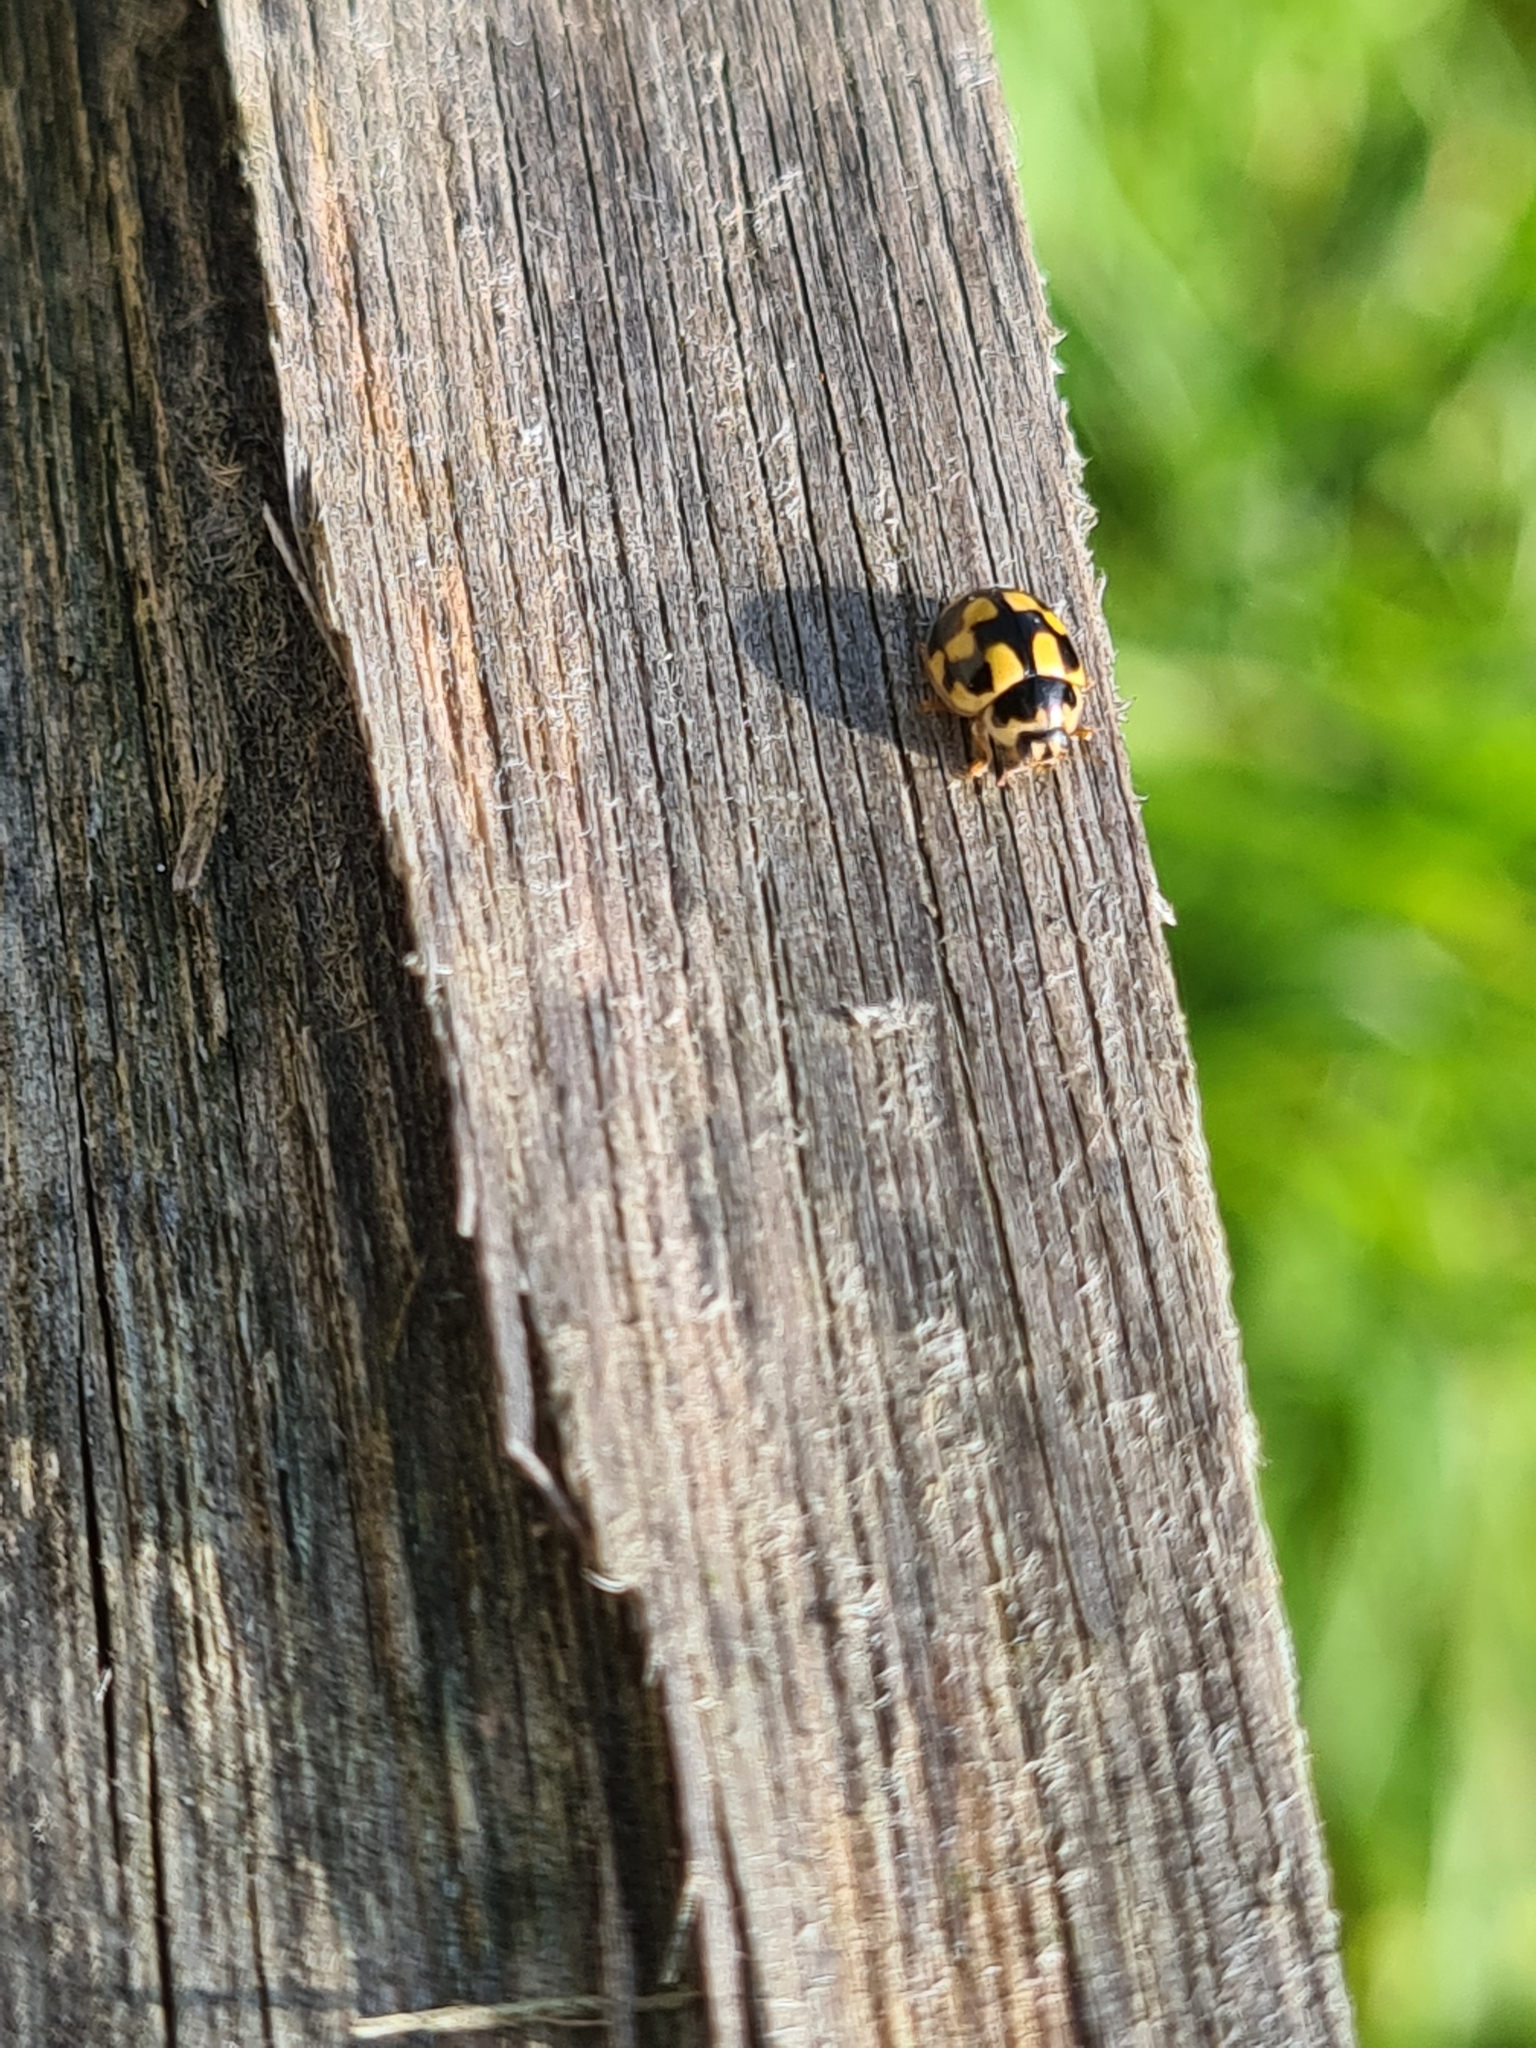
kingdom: Animalia
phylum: Arthropoda
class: Insecta
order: Coleoptera
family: Coccinellidae
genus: Propylaea
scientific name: Propylaea quatuordecimpunctata
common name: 14-spotted ladybird beetle
